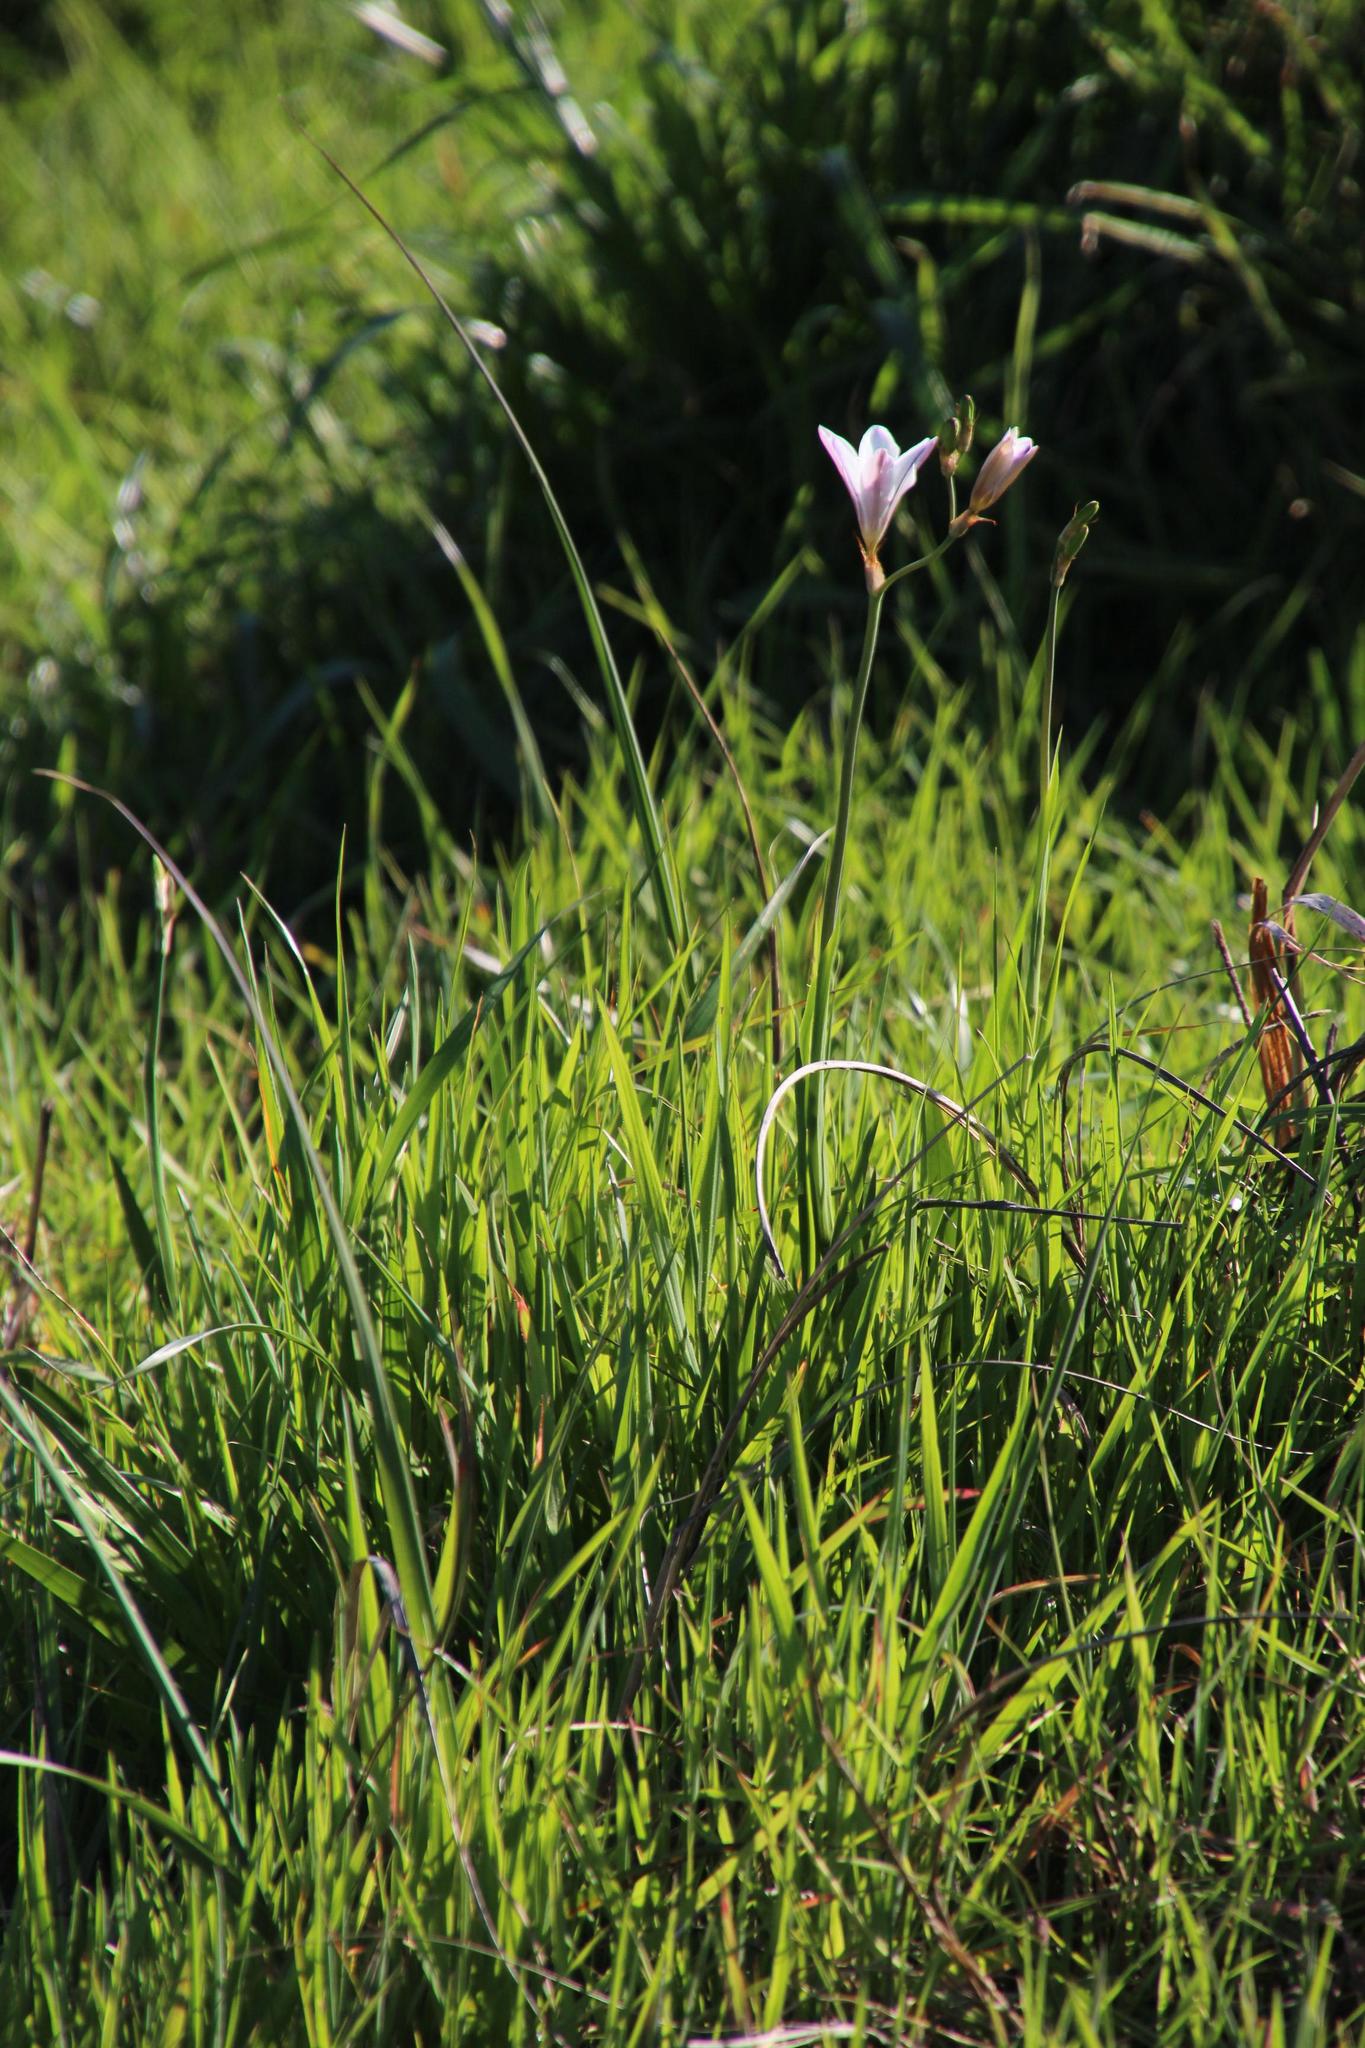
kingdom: Plantae
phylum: Tracheophyta
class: Liliopsida
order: Asparagales
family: Iridaceae
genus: Sparaxis
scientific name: Sparaxis bulbifera
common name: Harlequin-flower
